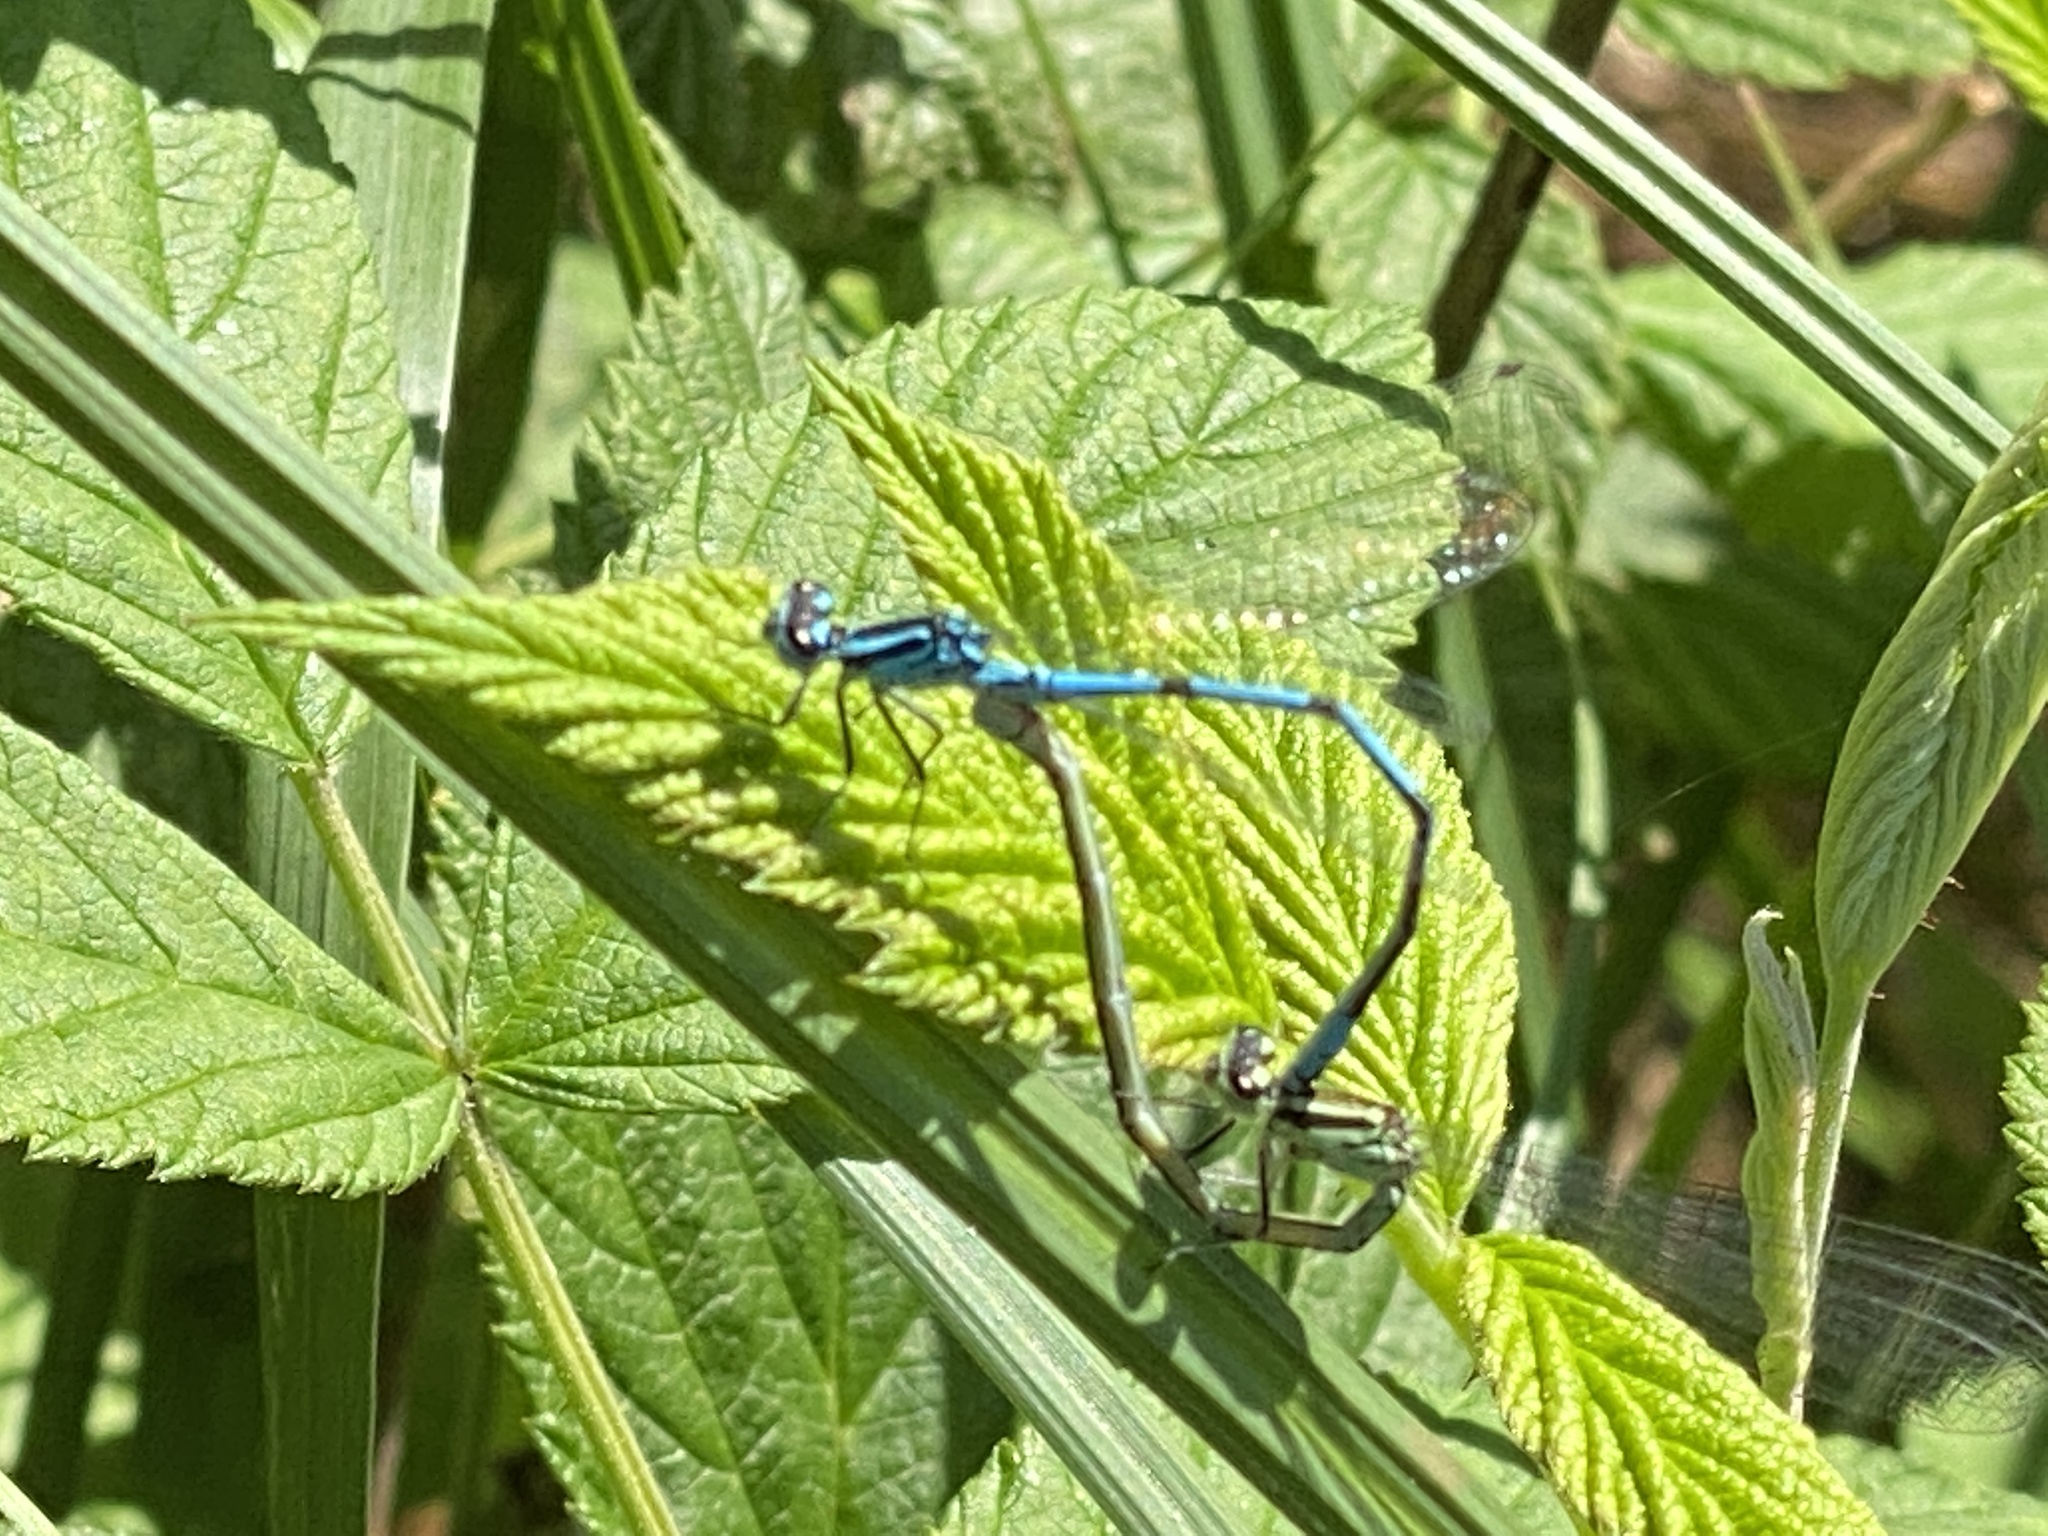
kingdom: Animalia
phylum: Arthropoda
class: Insecta
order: Odonata
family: Coenagrionidae
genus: Coenagrion
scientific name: Coenagrion puella
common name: Azure damselfly
